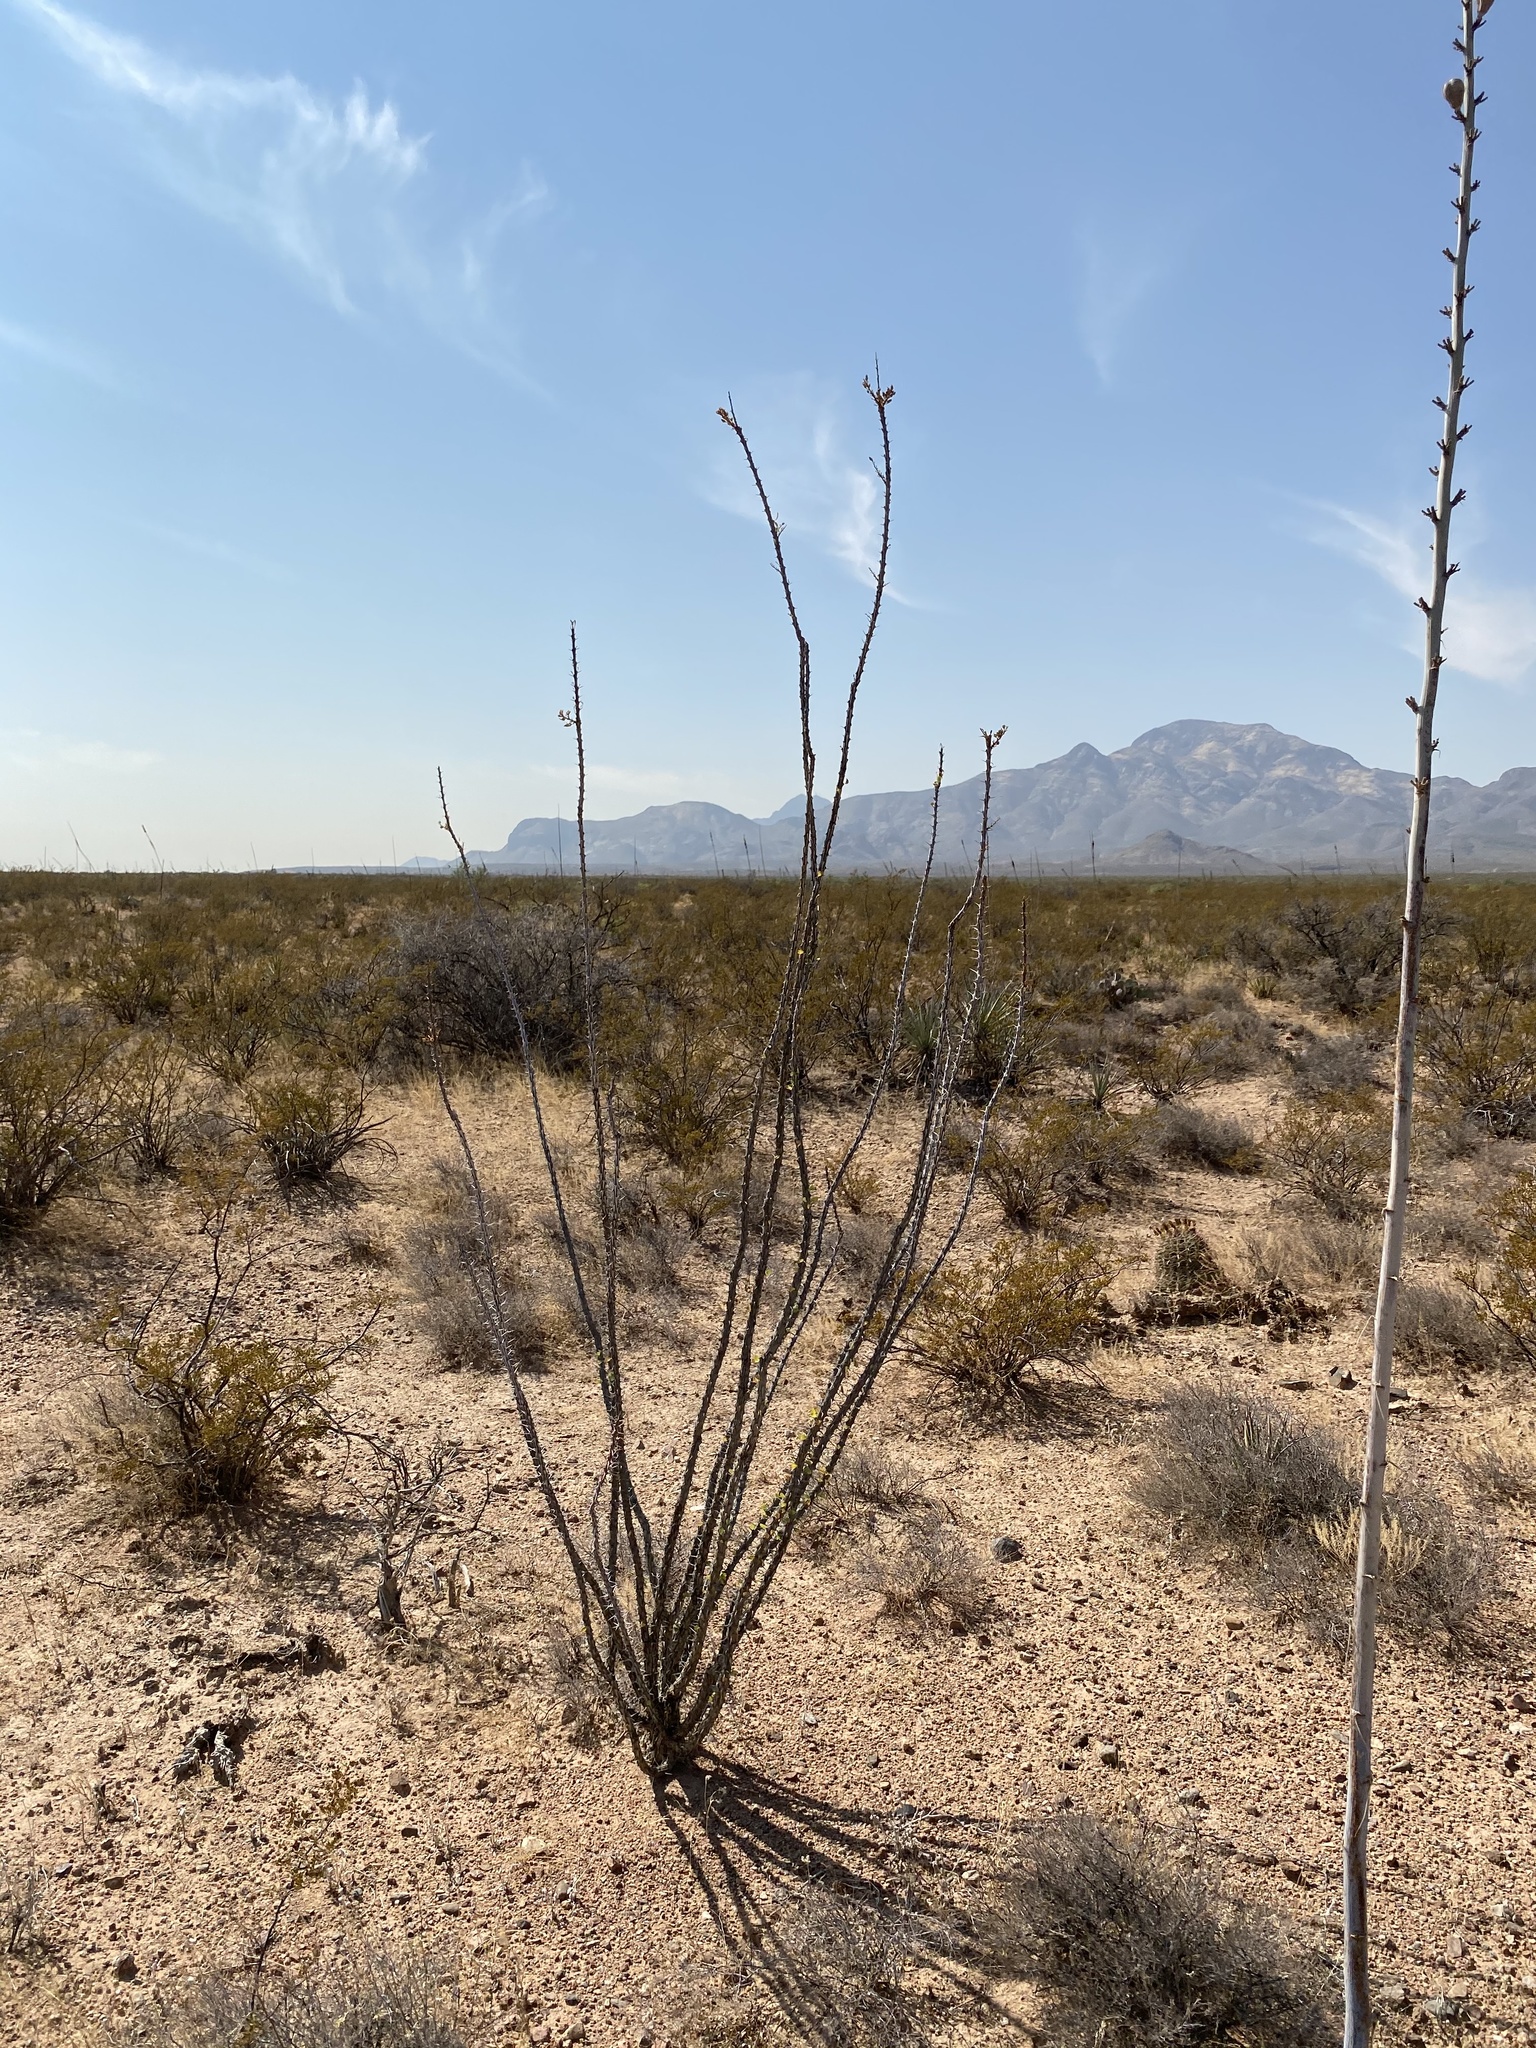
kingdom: Plantae
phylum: Tracheophyta
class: Magnoliopsida
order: Ericales
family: Fouquieriaceae
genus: Fouquieria
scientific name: Fouquieria splendens
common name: Vine-cactus
